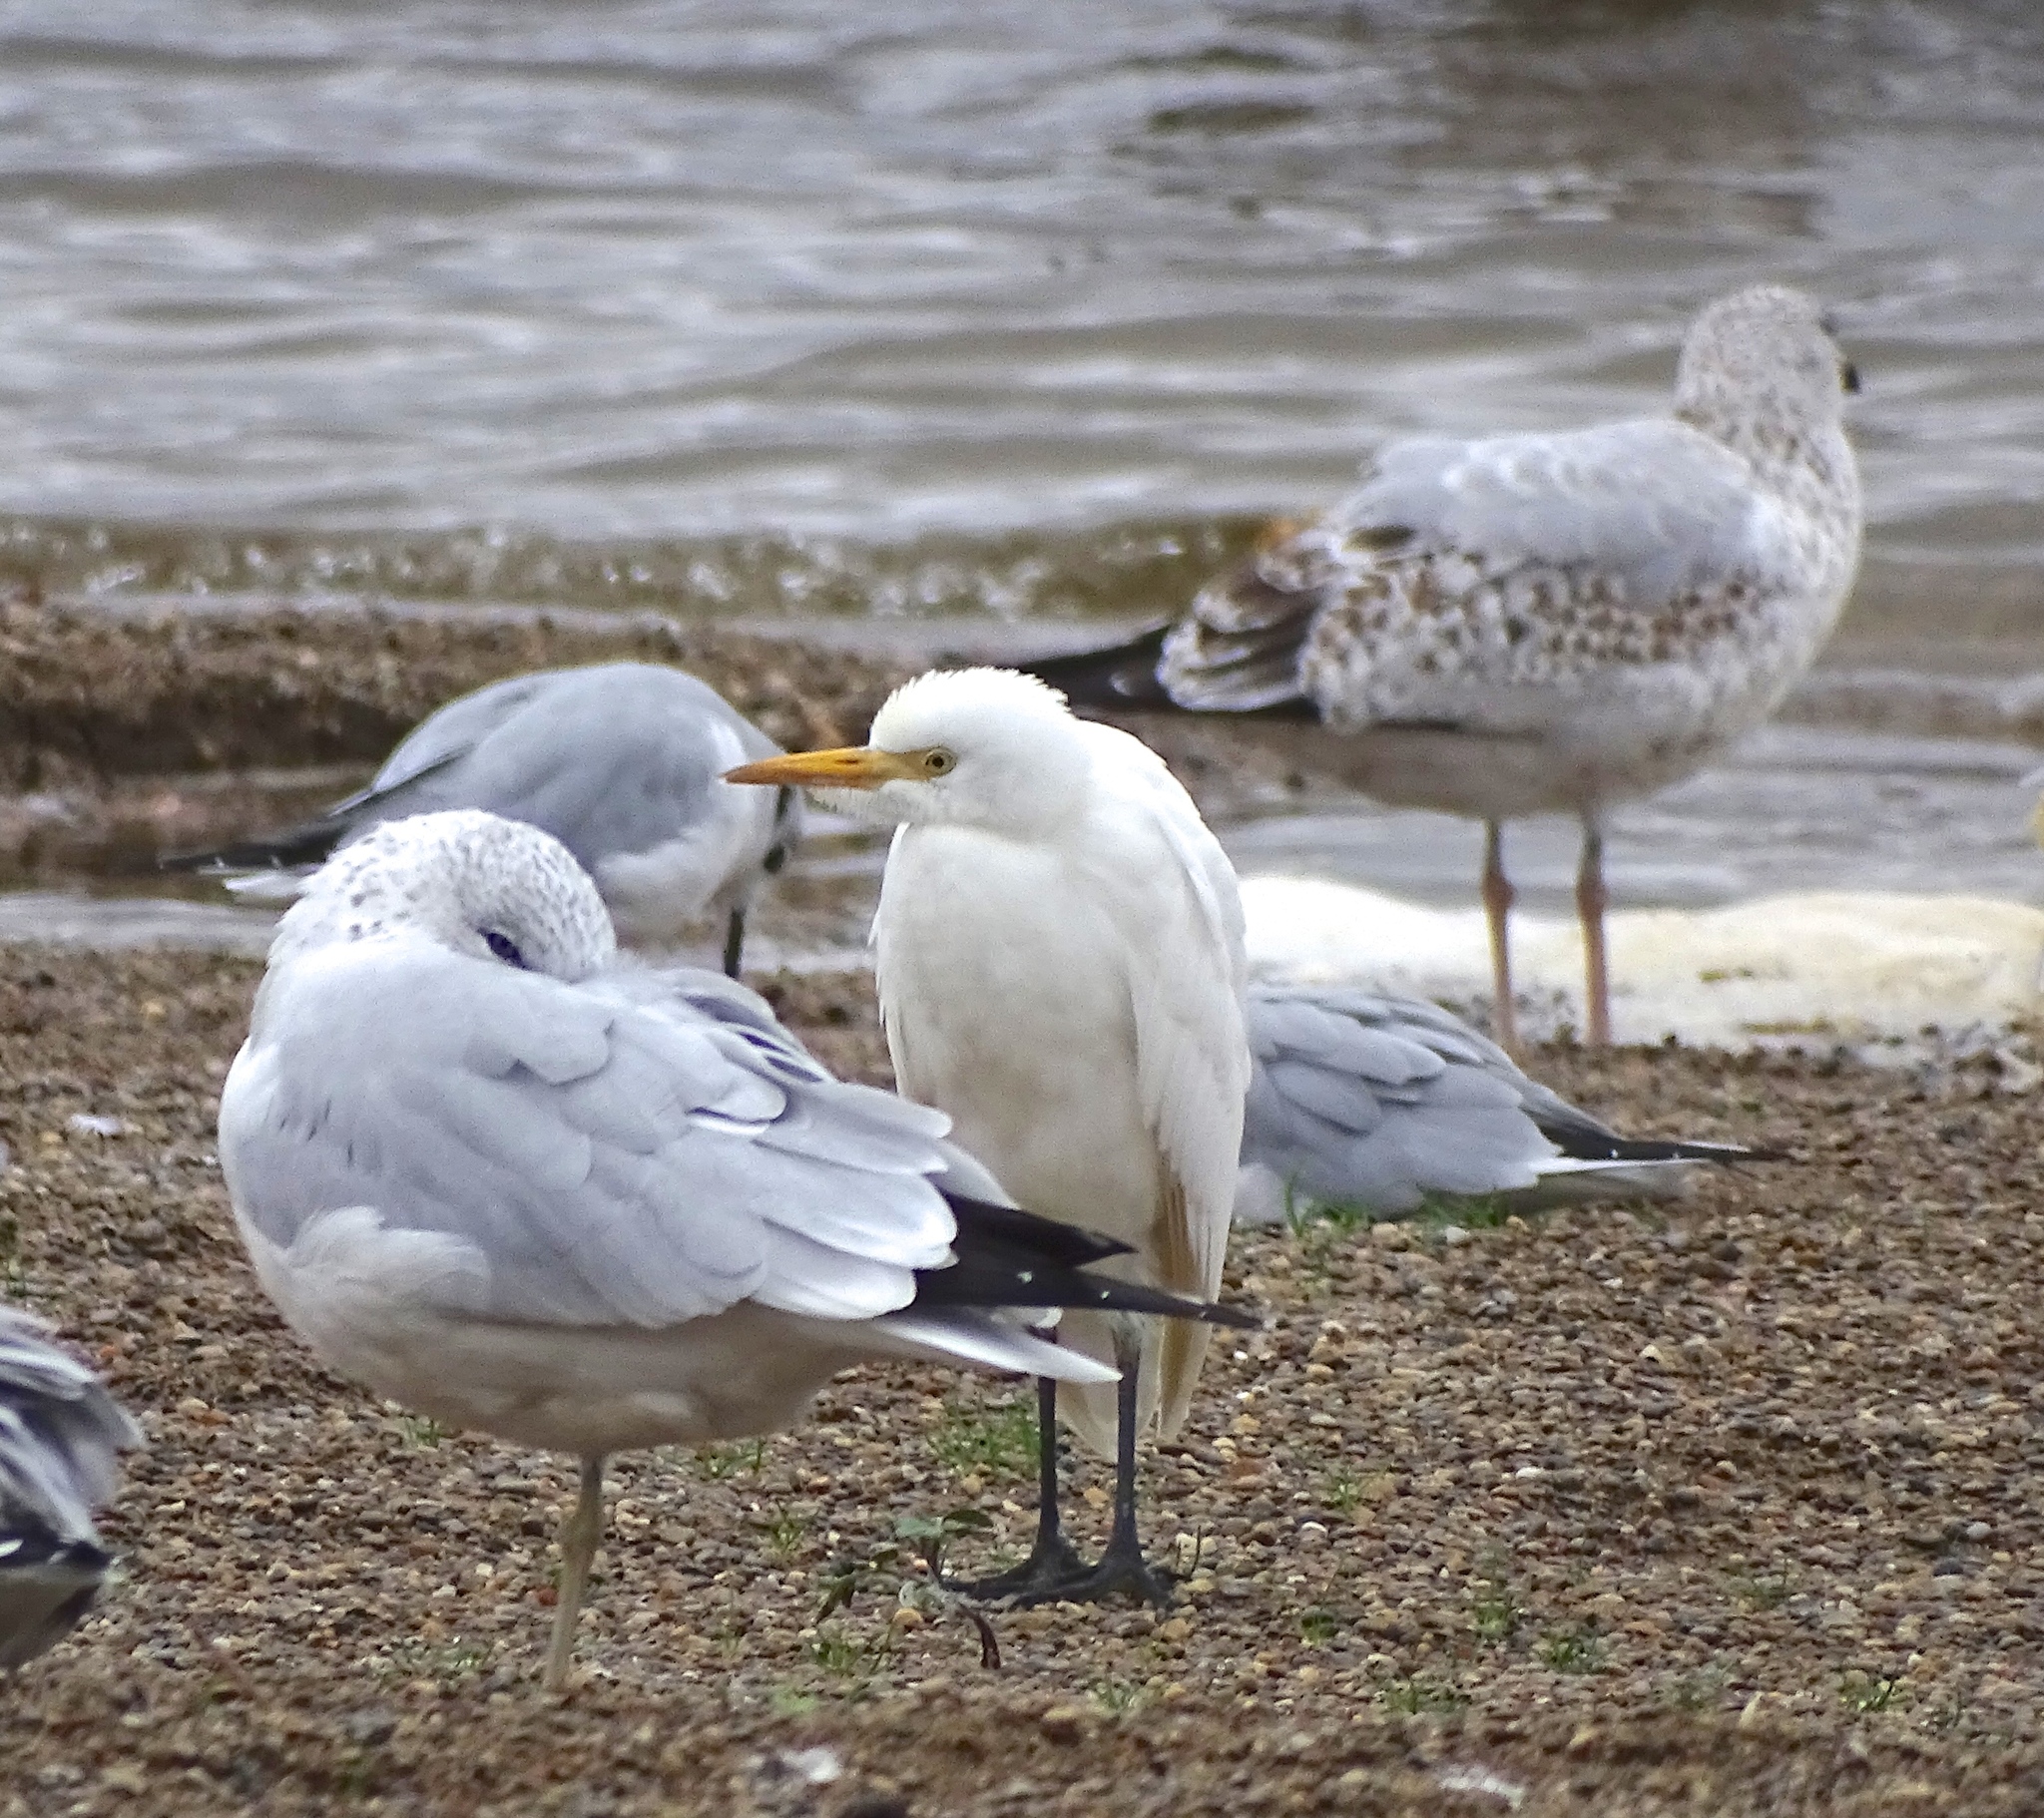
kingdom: Animalia
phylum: Chordata
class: Aves
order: Pelecaniformes
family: Ardeidae
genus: Bubulcus
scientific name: Bubulcus ibis
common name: Cattle egret
